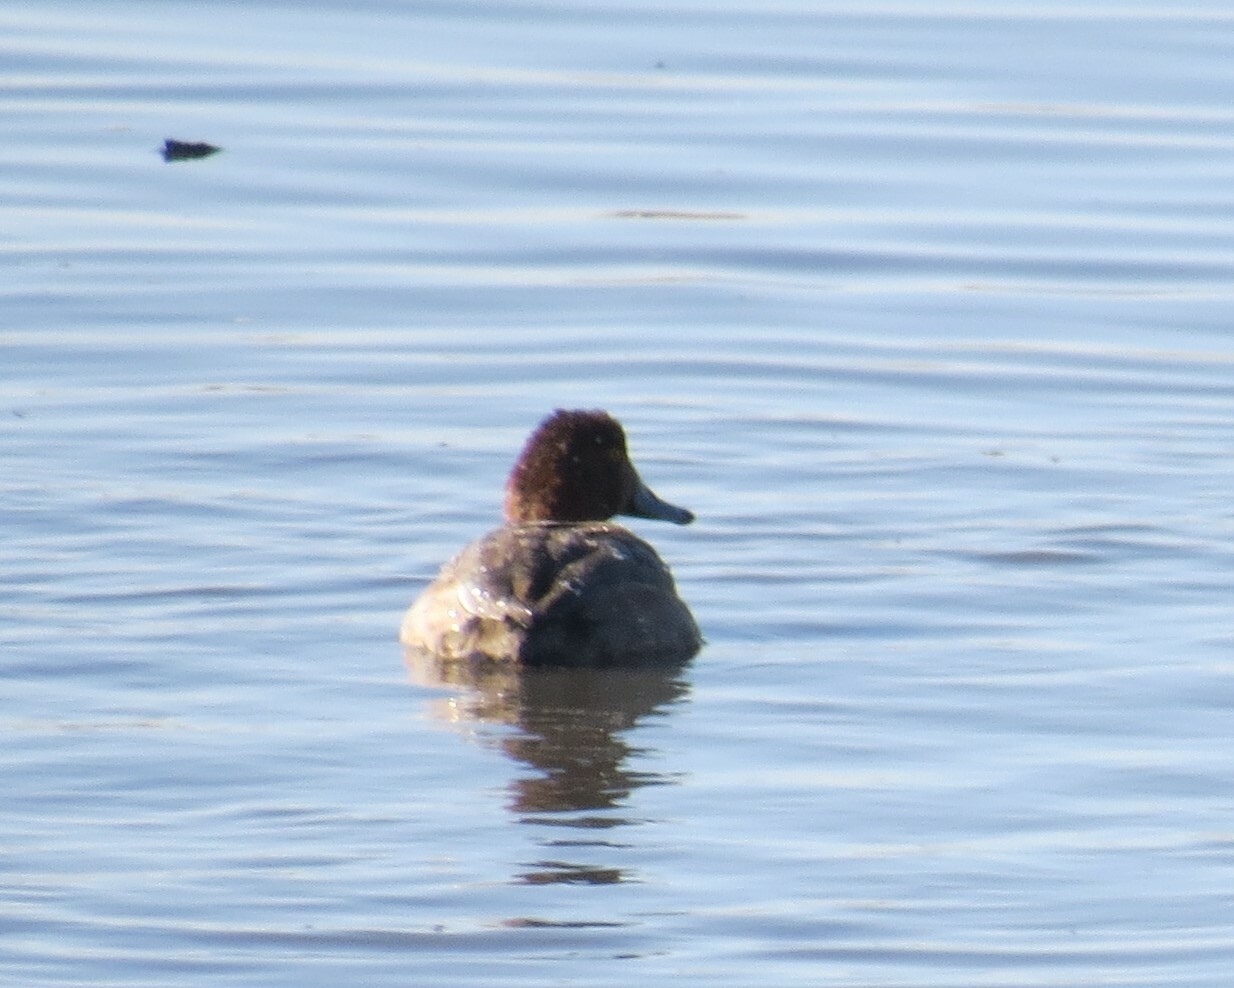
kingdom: Animalia
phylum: Chordata
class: Aves
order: Anseriformes
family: Anatidae
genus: Aythya
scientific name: Aythya americana
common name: Redhead
